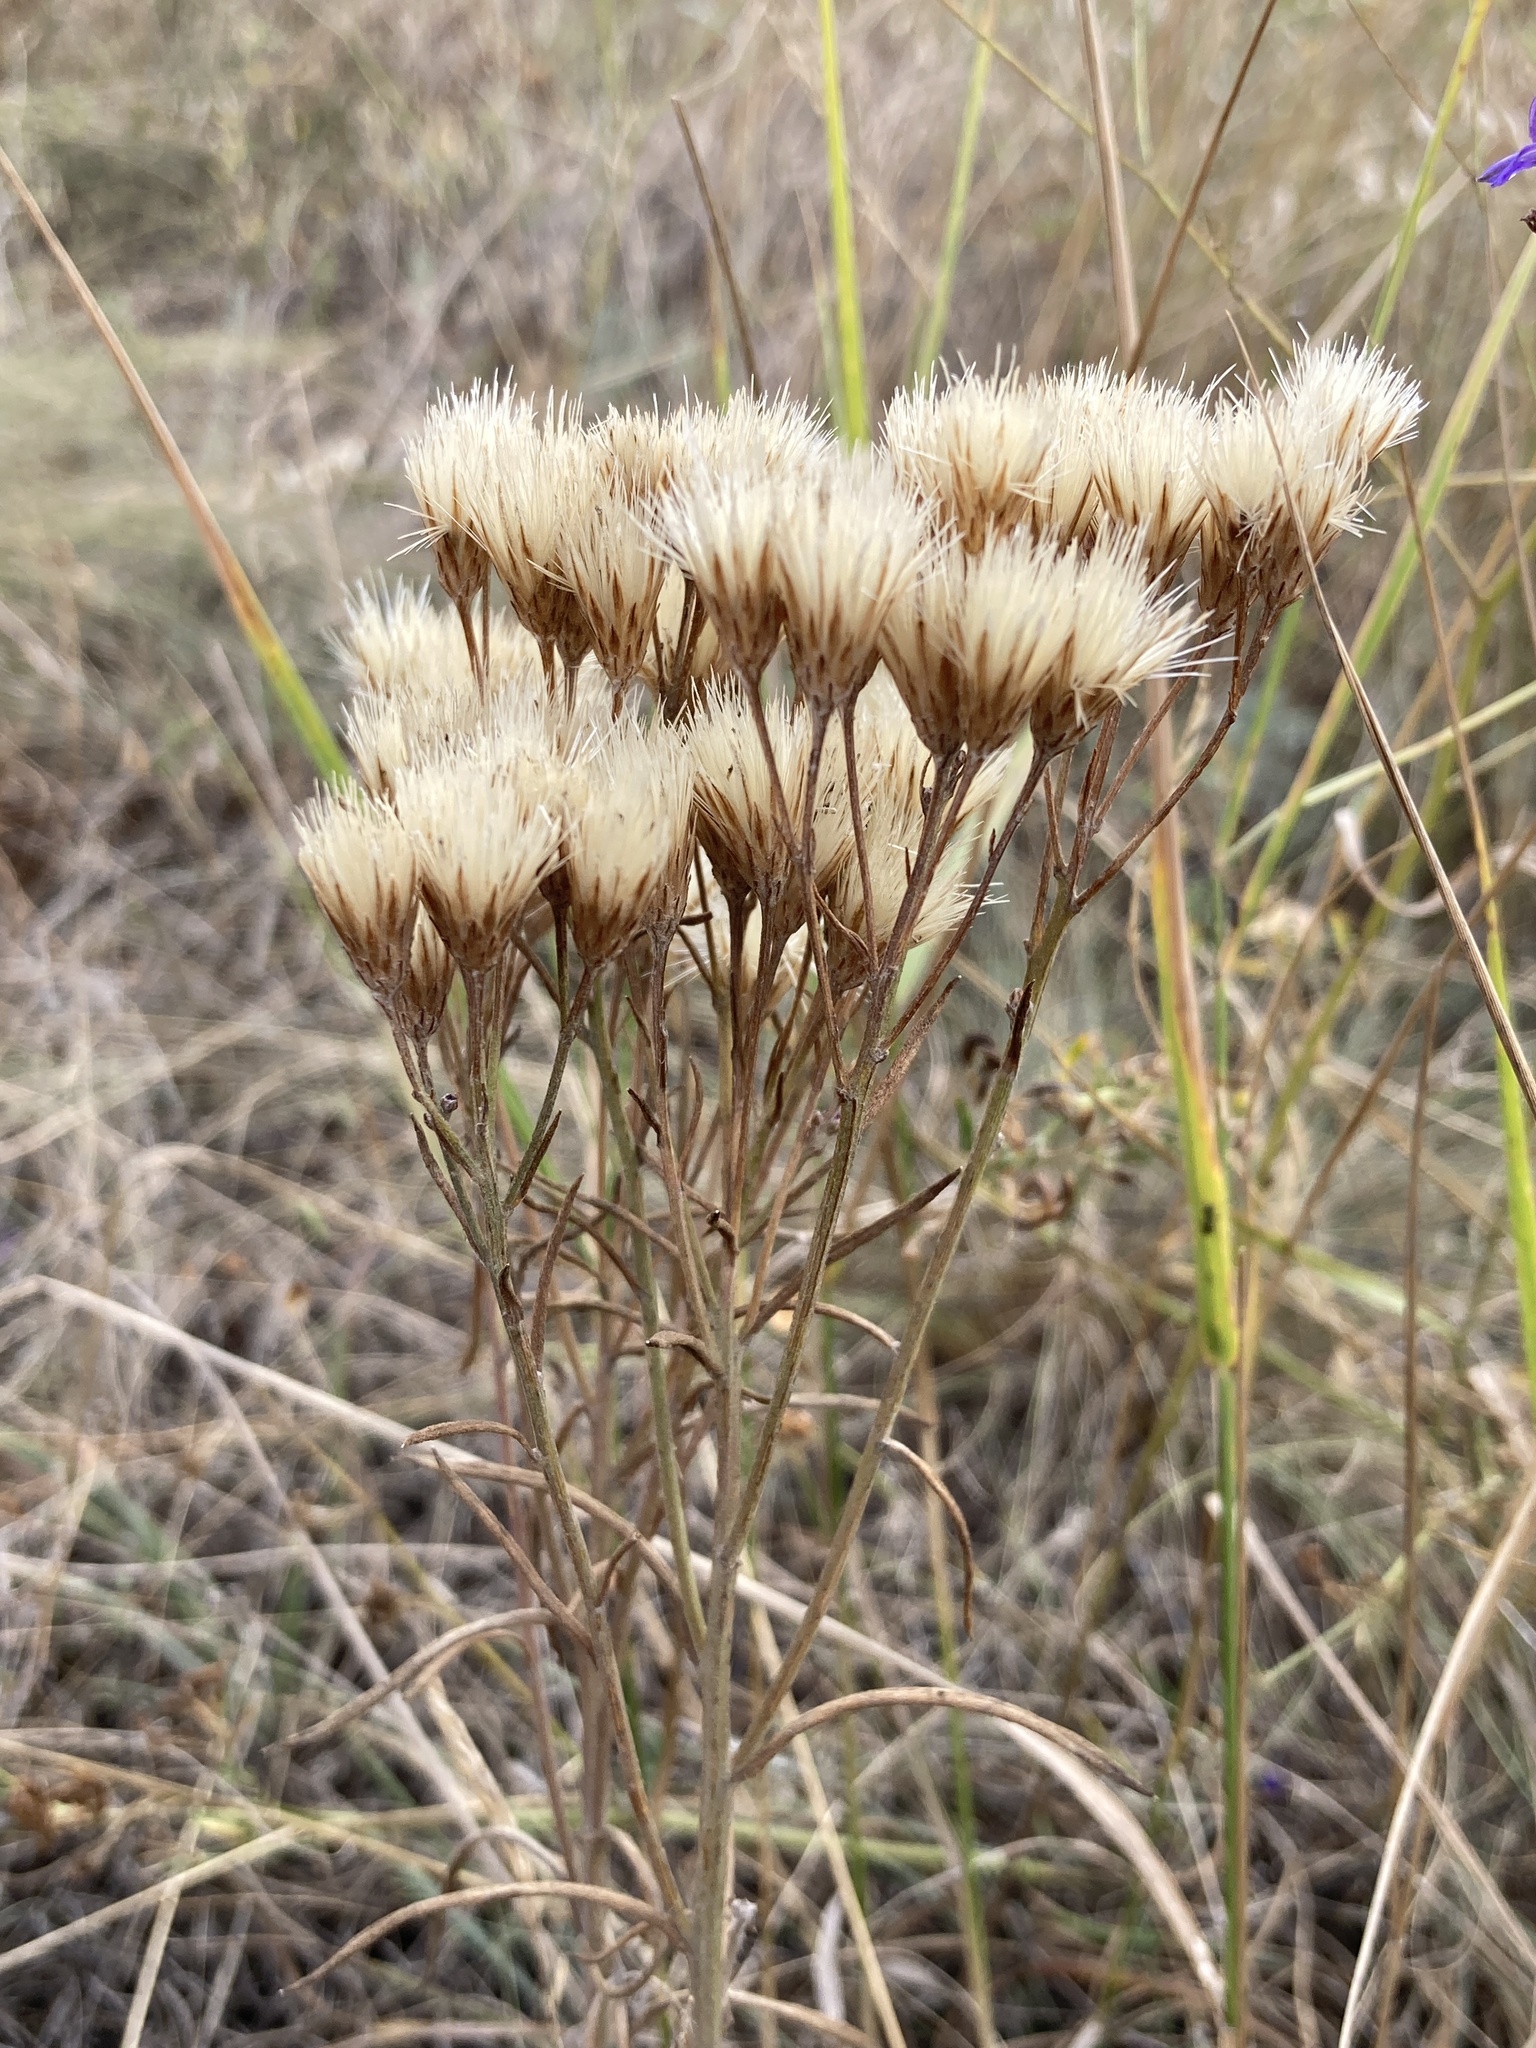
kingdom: Plantae
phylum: Tracheophyta
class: Magnoliopsida
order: Asterales
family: Asteraceae
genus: Jurinea
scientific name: Jurinea multiflora
